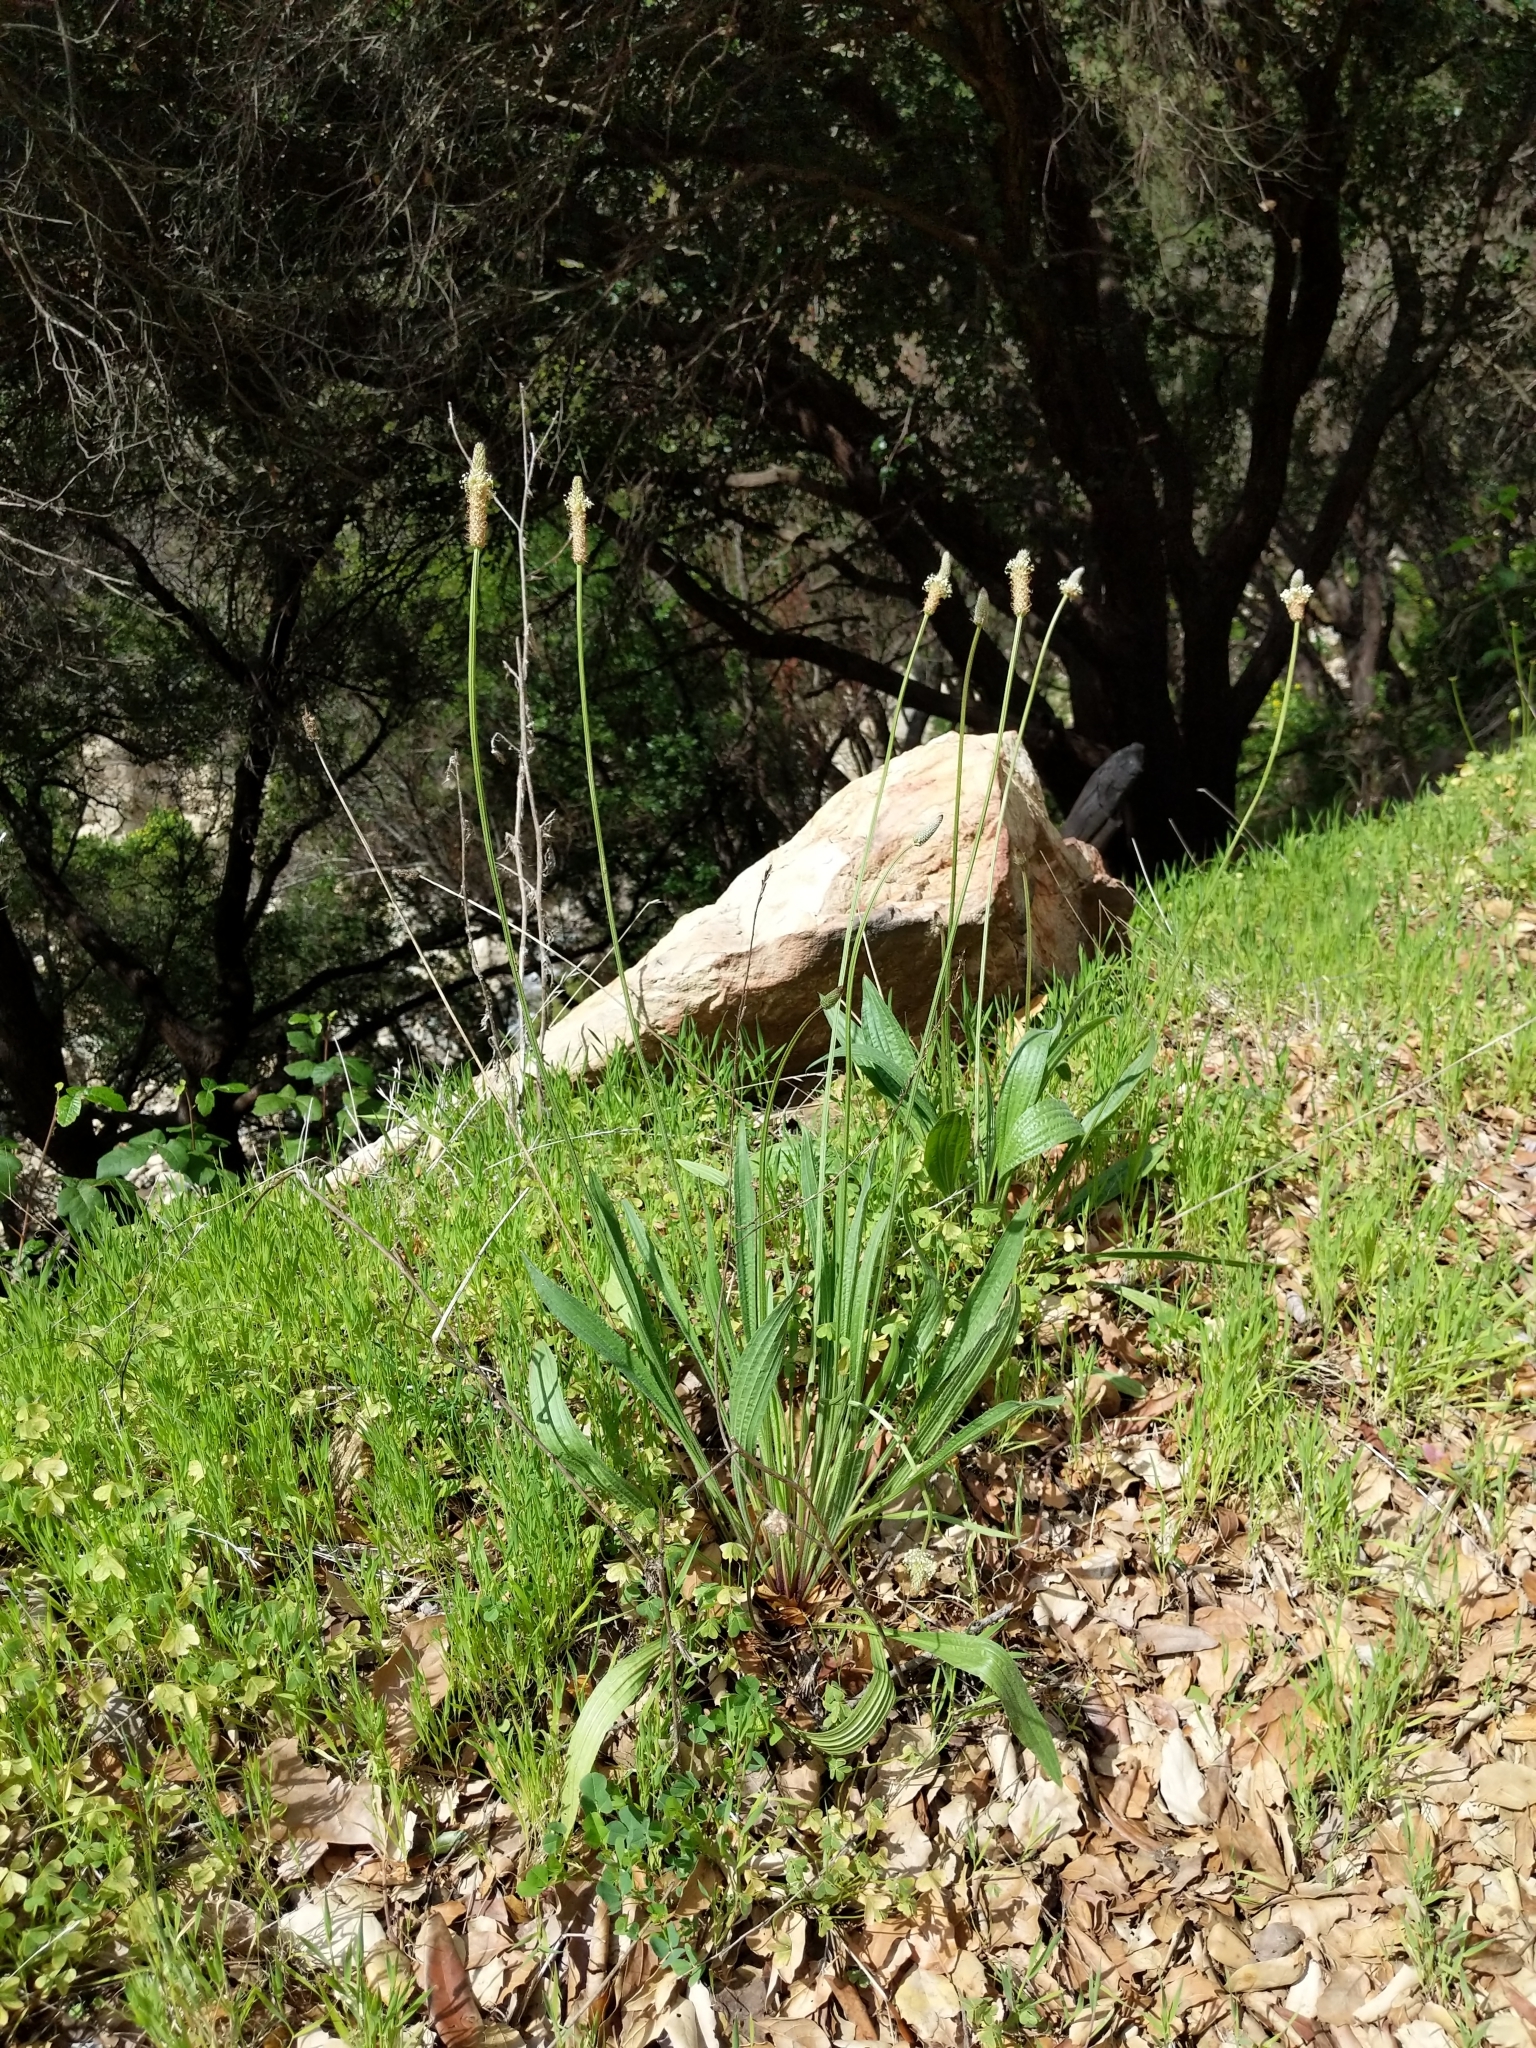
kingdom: Plantae
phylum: Tracheophyta
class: Magnoliopsida
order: Lamiales
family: Plantaginaceae
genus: Plantago
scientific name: Plantago lanceolata
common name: Ribwort plantain
